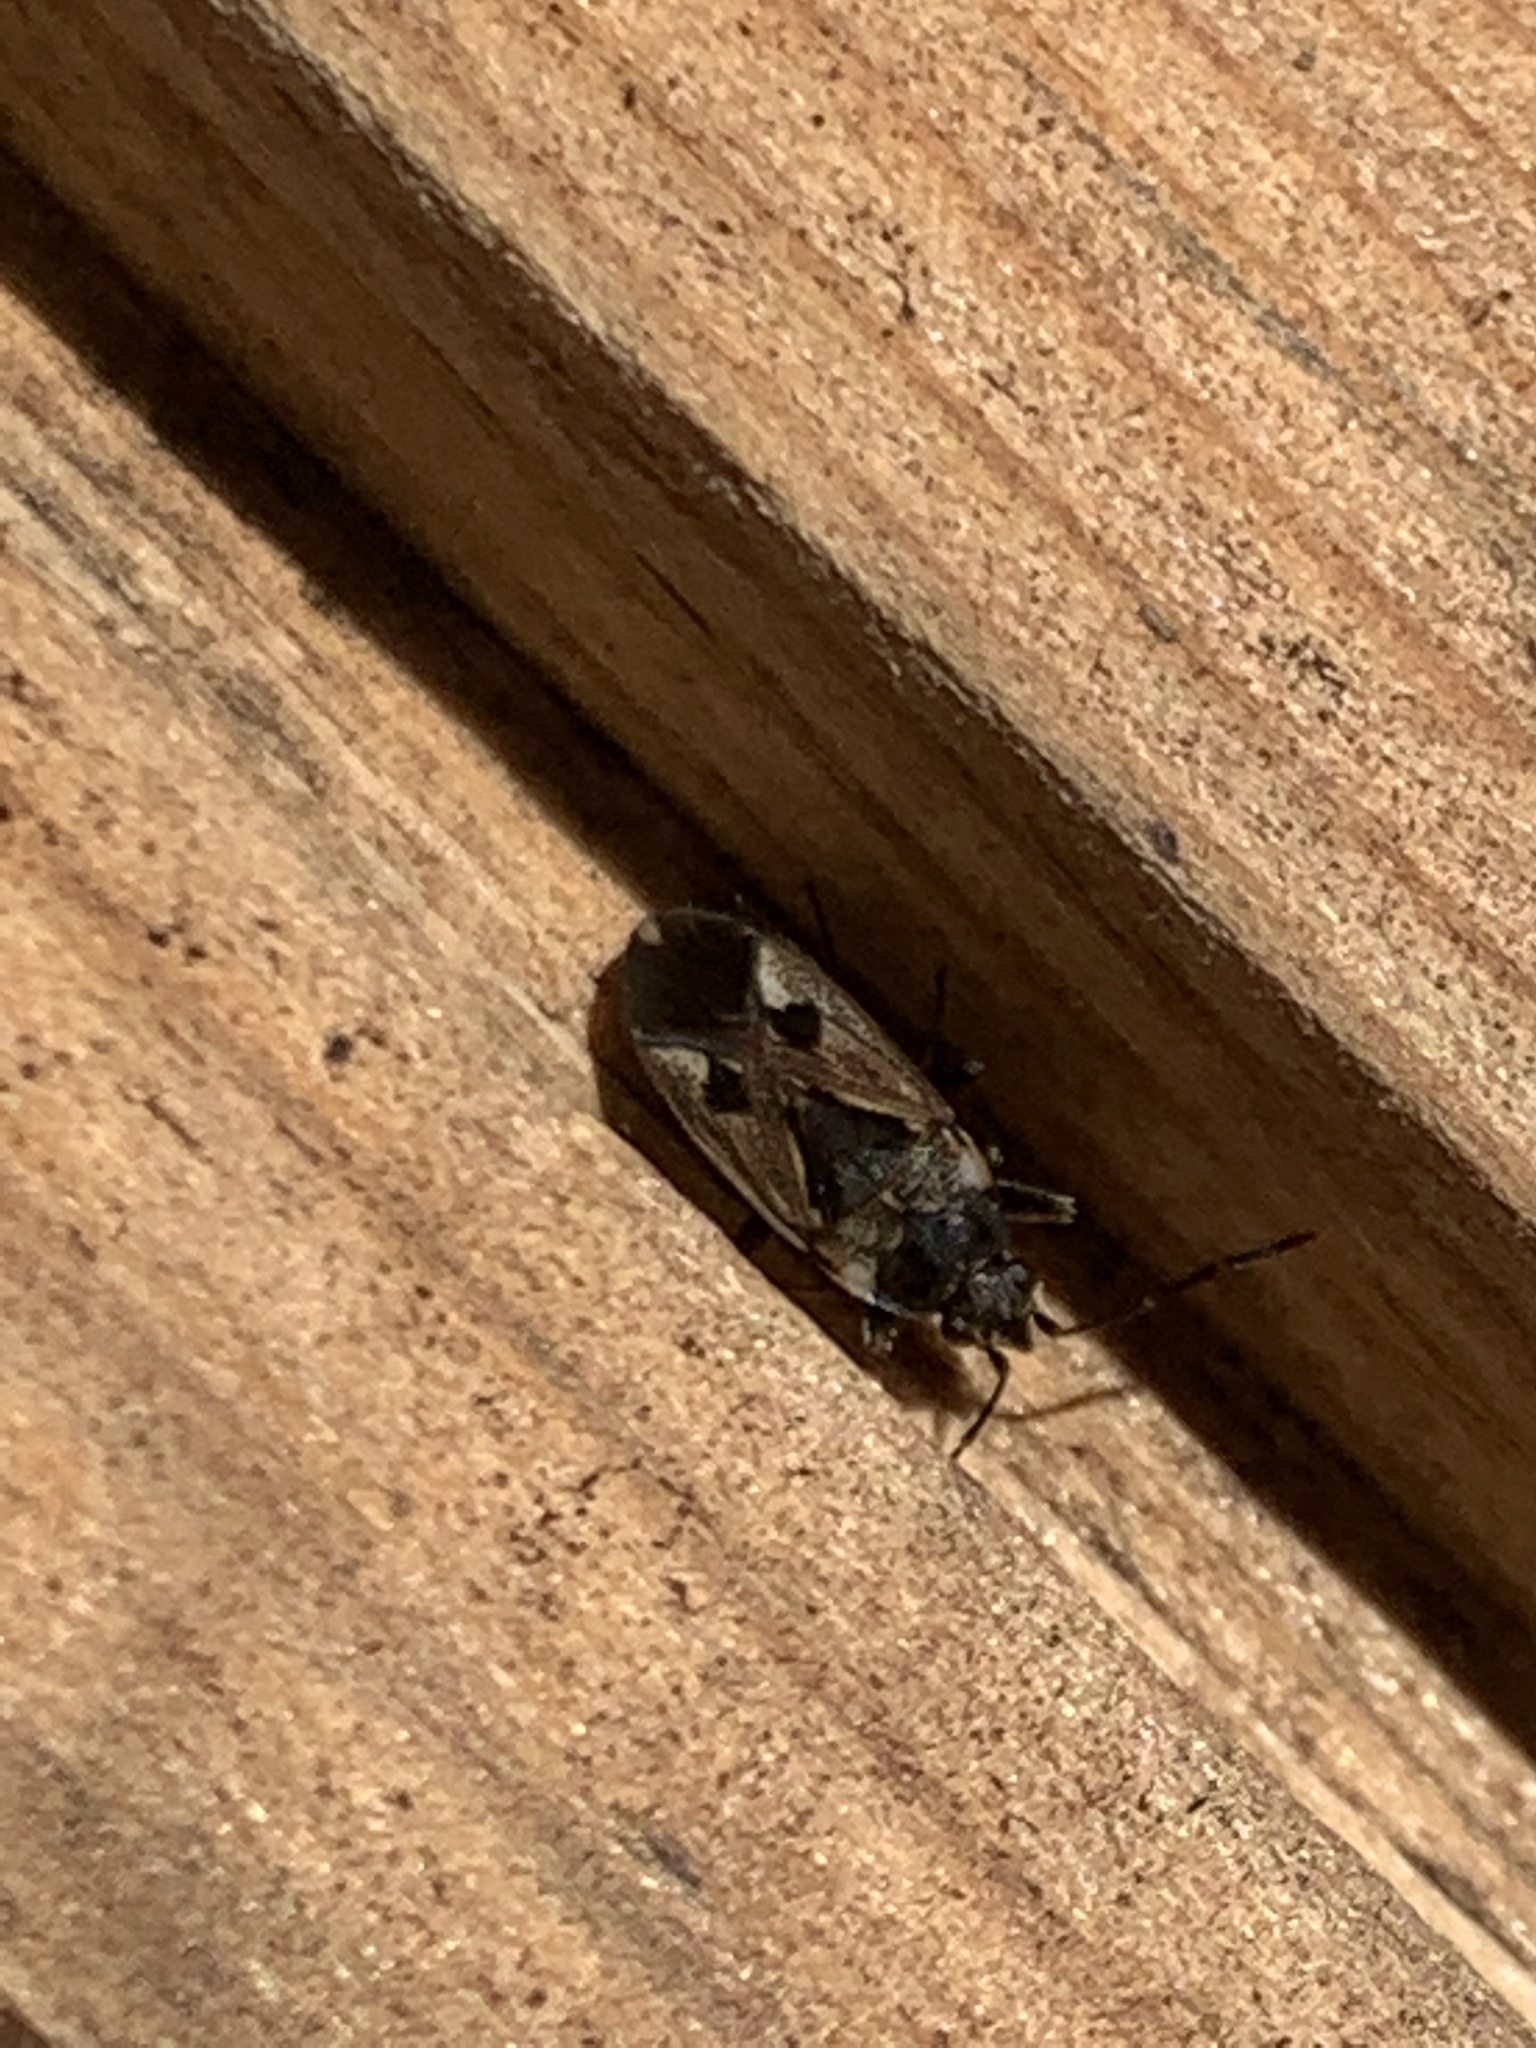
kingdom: Animalia
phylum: Arthropoda
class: Insecta
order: Hemiptera
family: Rhyparochromidae
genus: Rhyparochromus
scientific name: Rhyparochromus vulgaris
